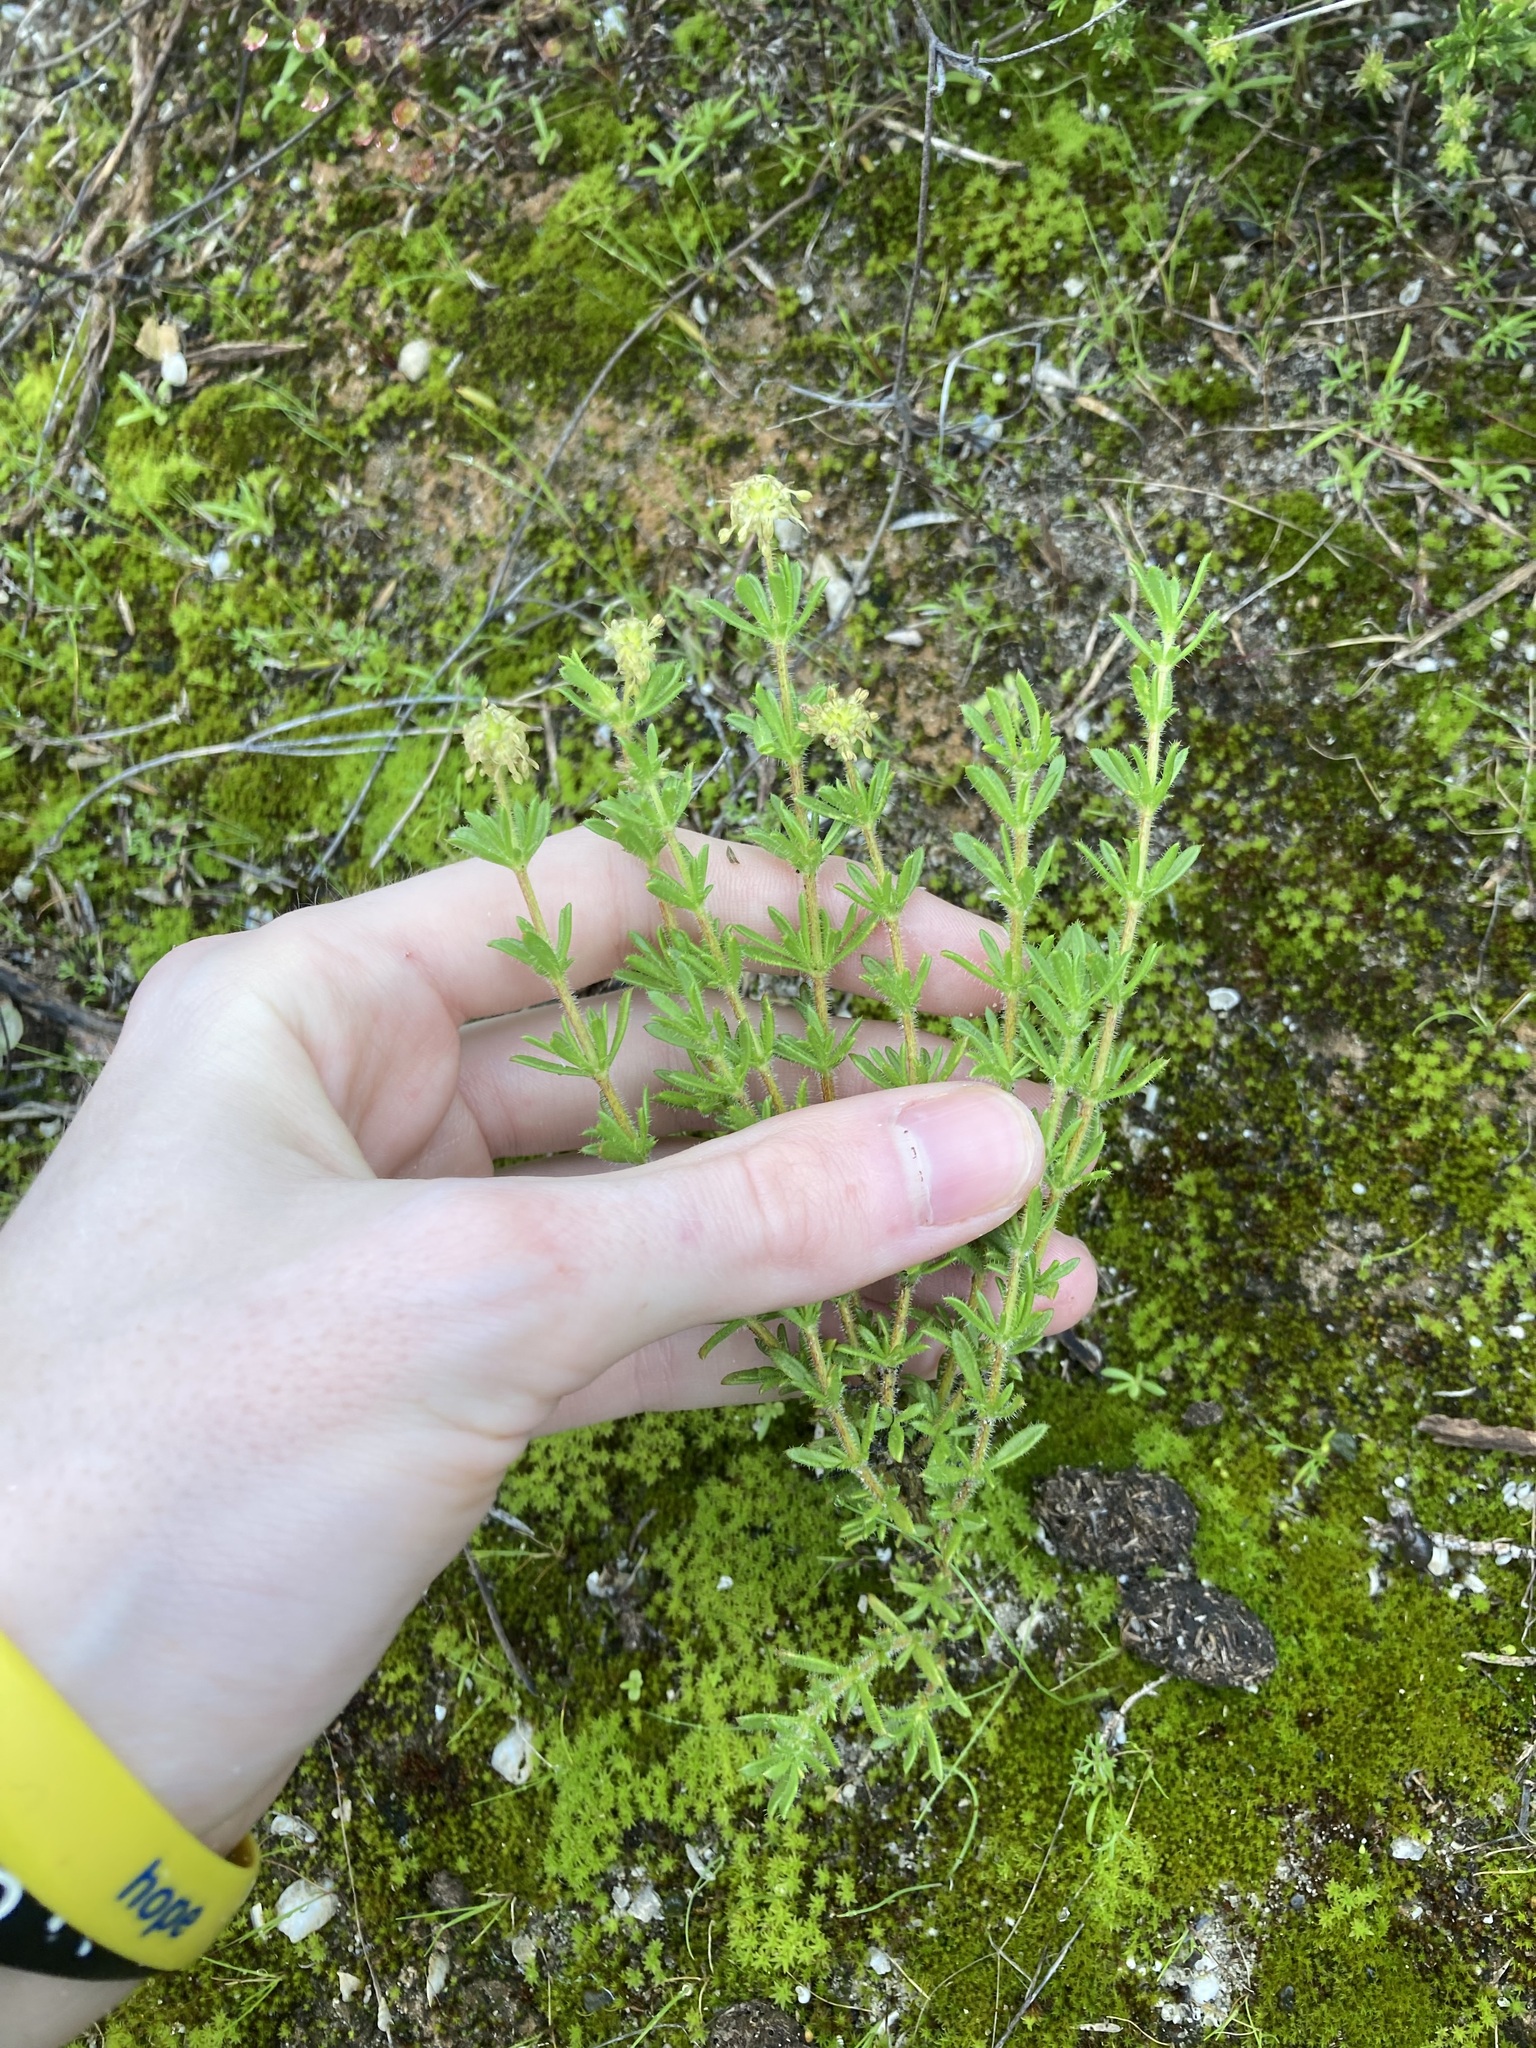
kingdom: Plantae
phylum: Tracheophyta
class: Magnoliopsida
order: Gentianales
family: Rubiaceae
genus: Opercularia
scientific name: Opercularia spermacocea
